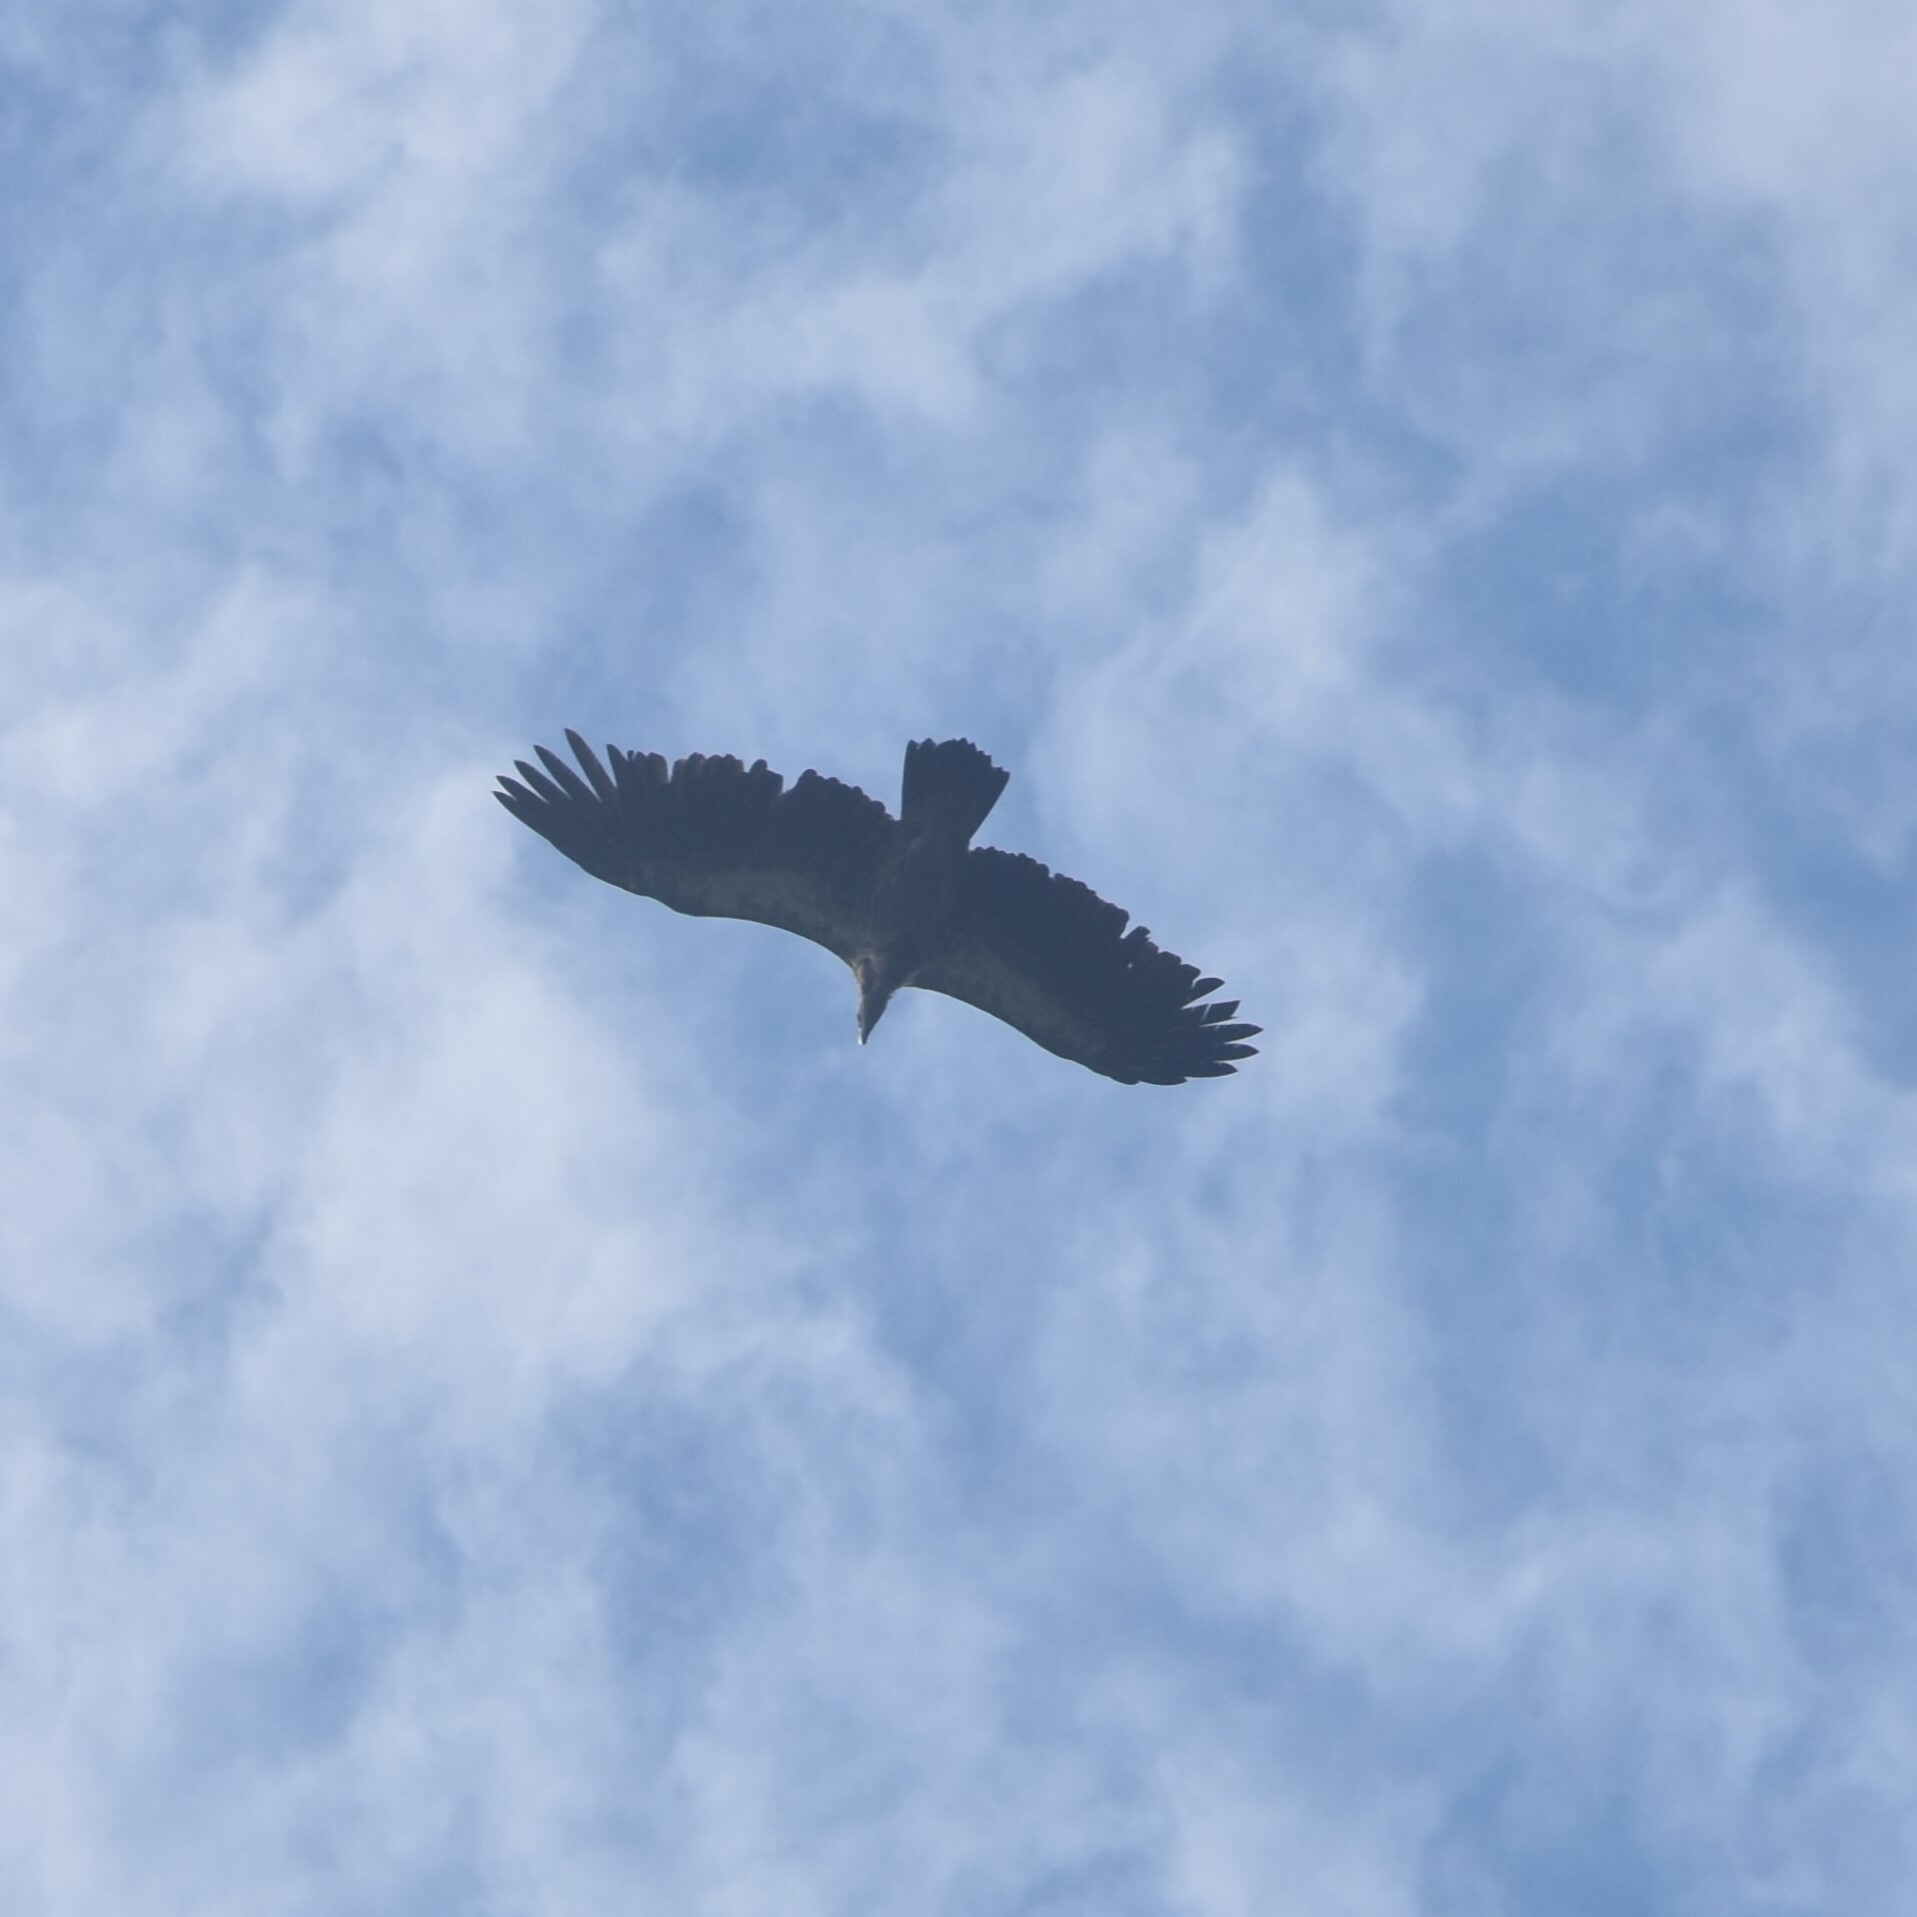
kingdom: Animalia
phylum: Chordata
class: Aves
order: Accipitriformes
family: Accipitridae
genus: Gyps
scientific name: Gyps himalayensis
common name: Himalayan griffon
